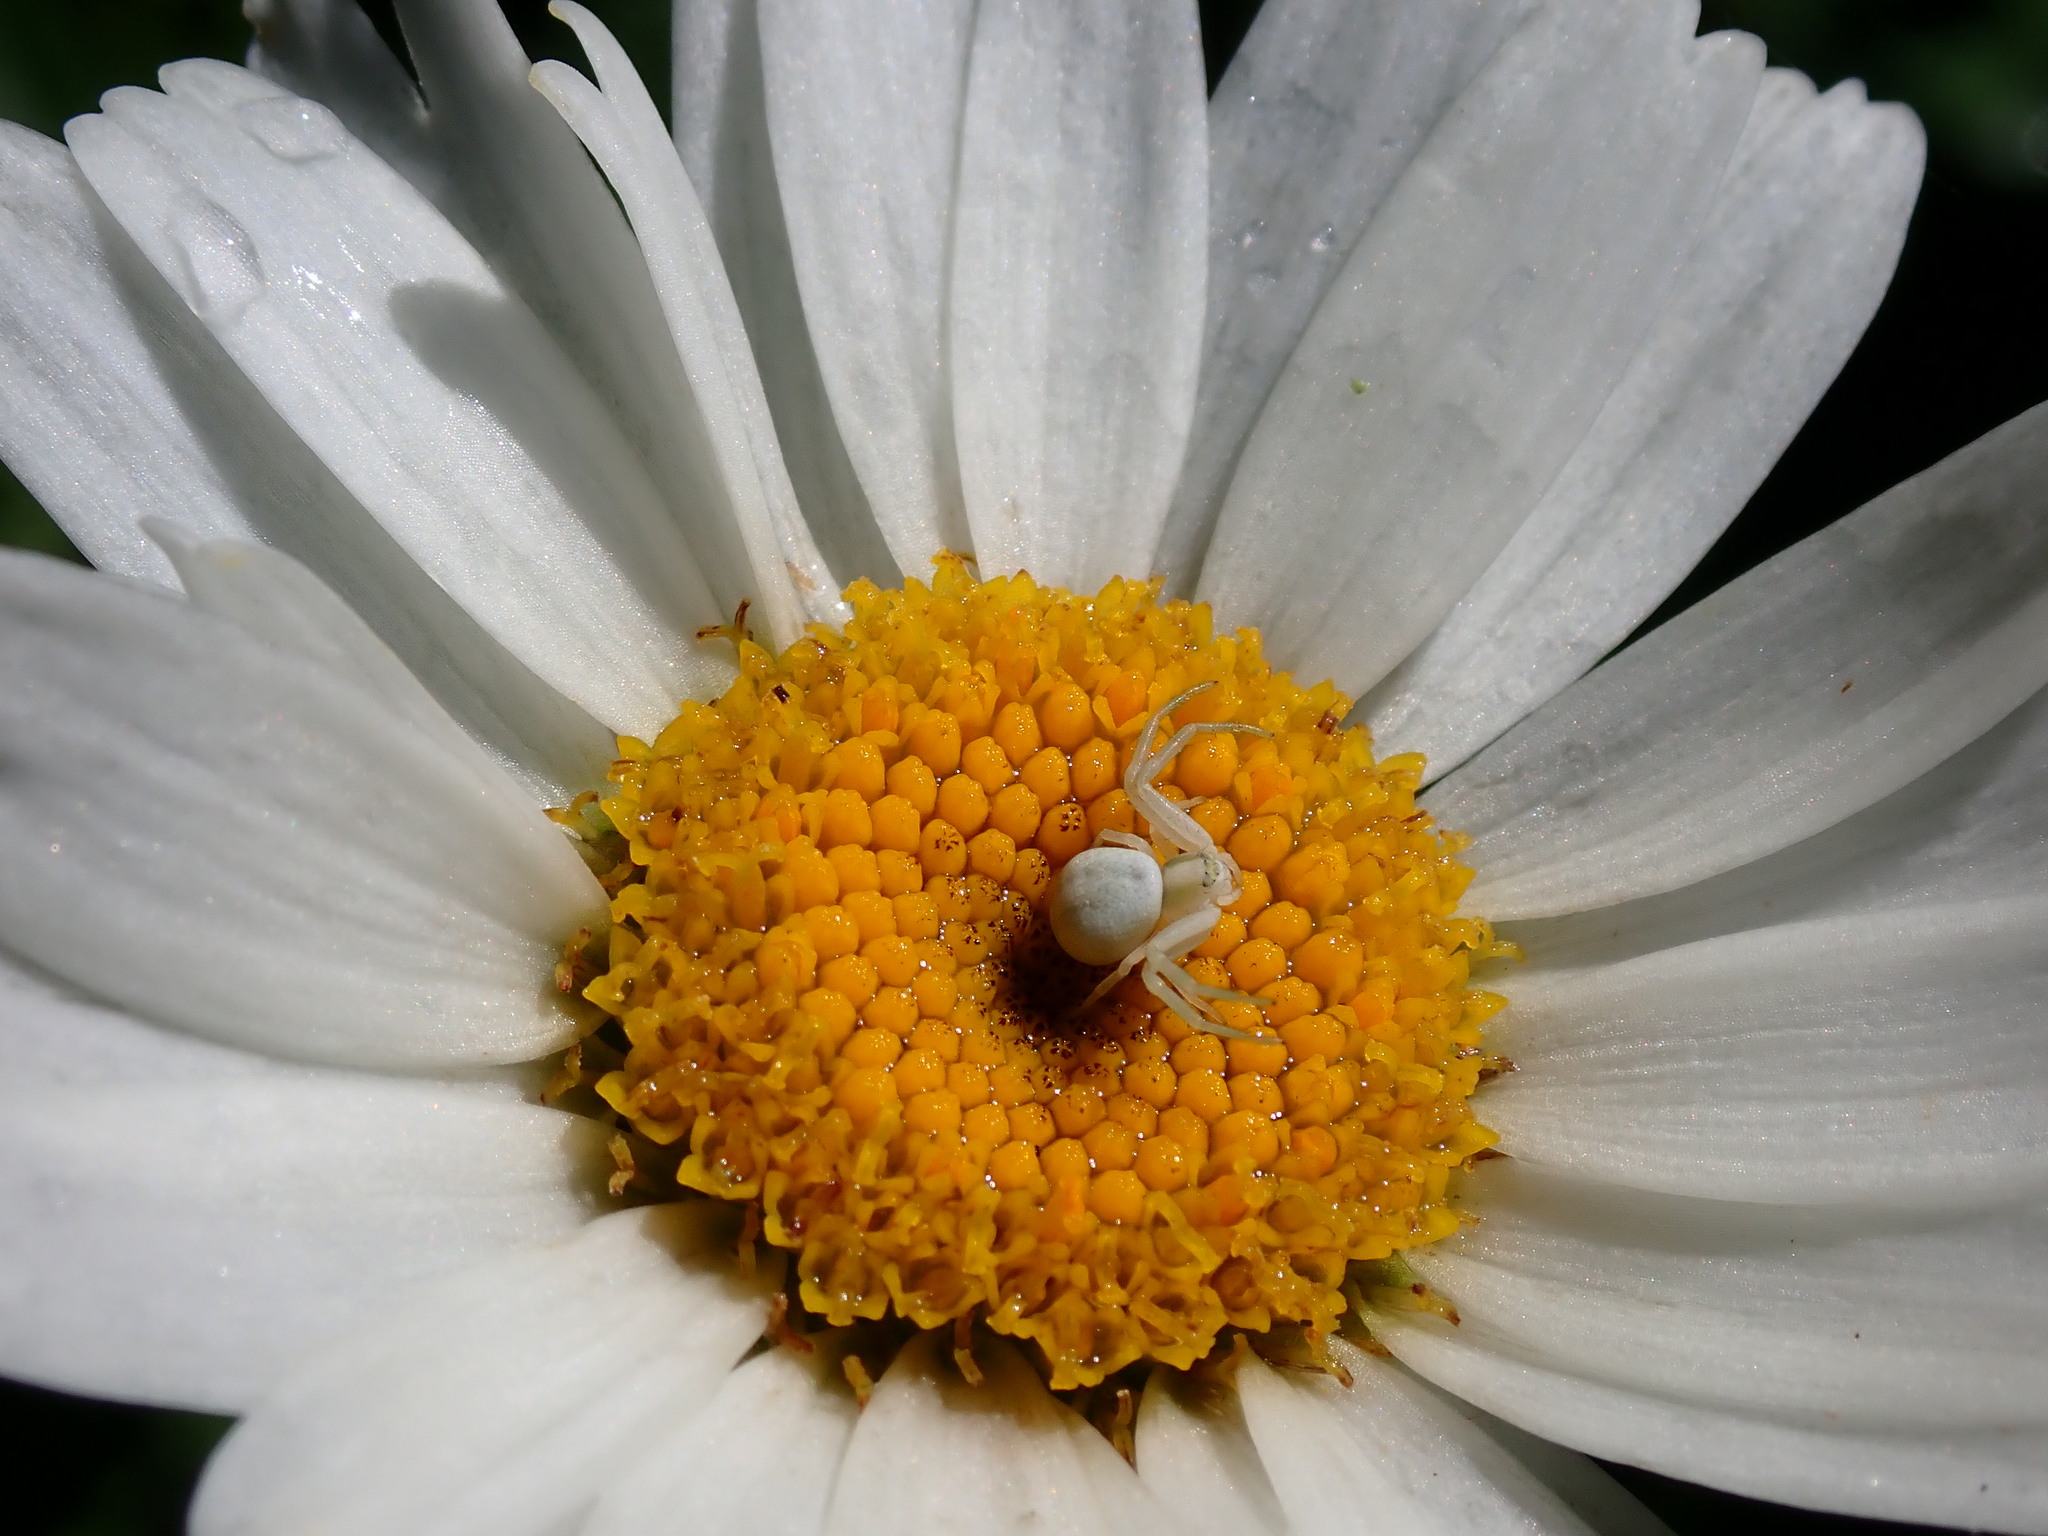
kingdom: Animalia
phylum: Arthropoda
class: Arachnida
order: Araneae
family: Thomisidae
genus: Misumena
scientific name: Misumena vatia
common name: Goldenrod crab spider
